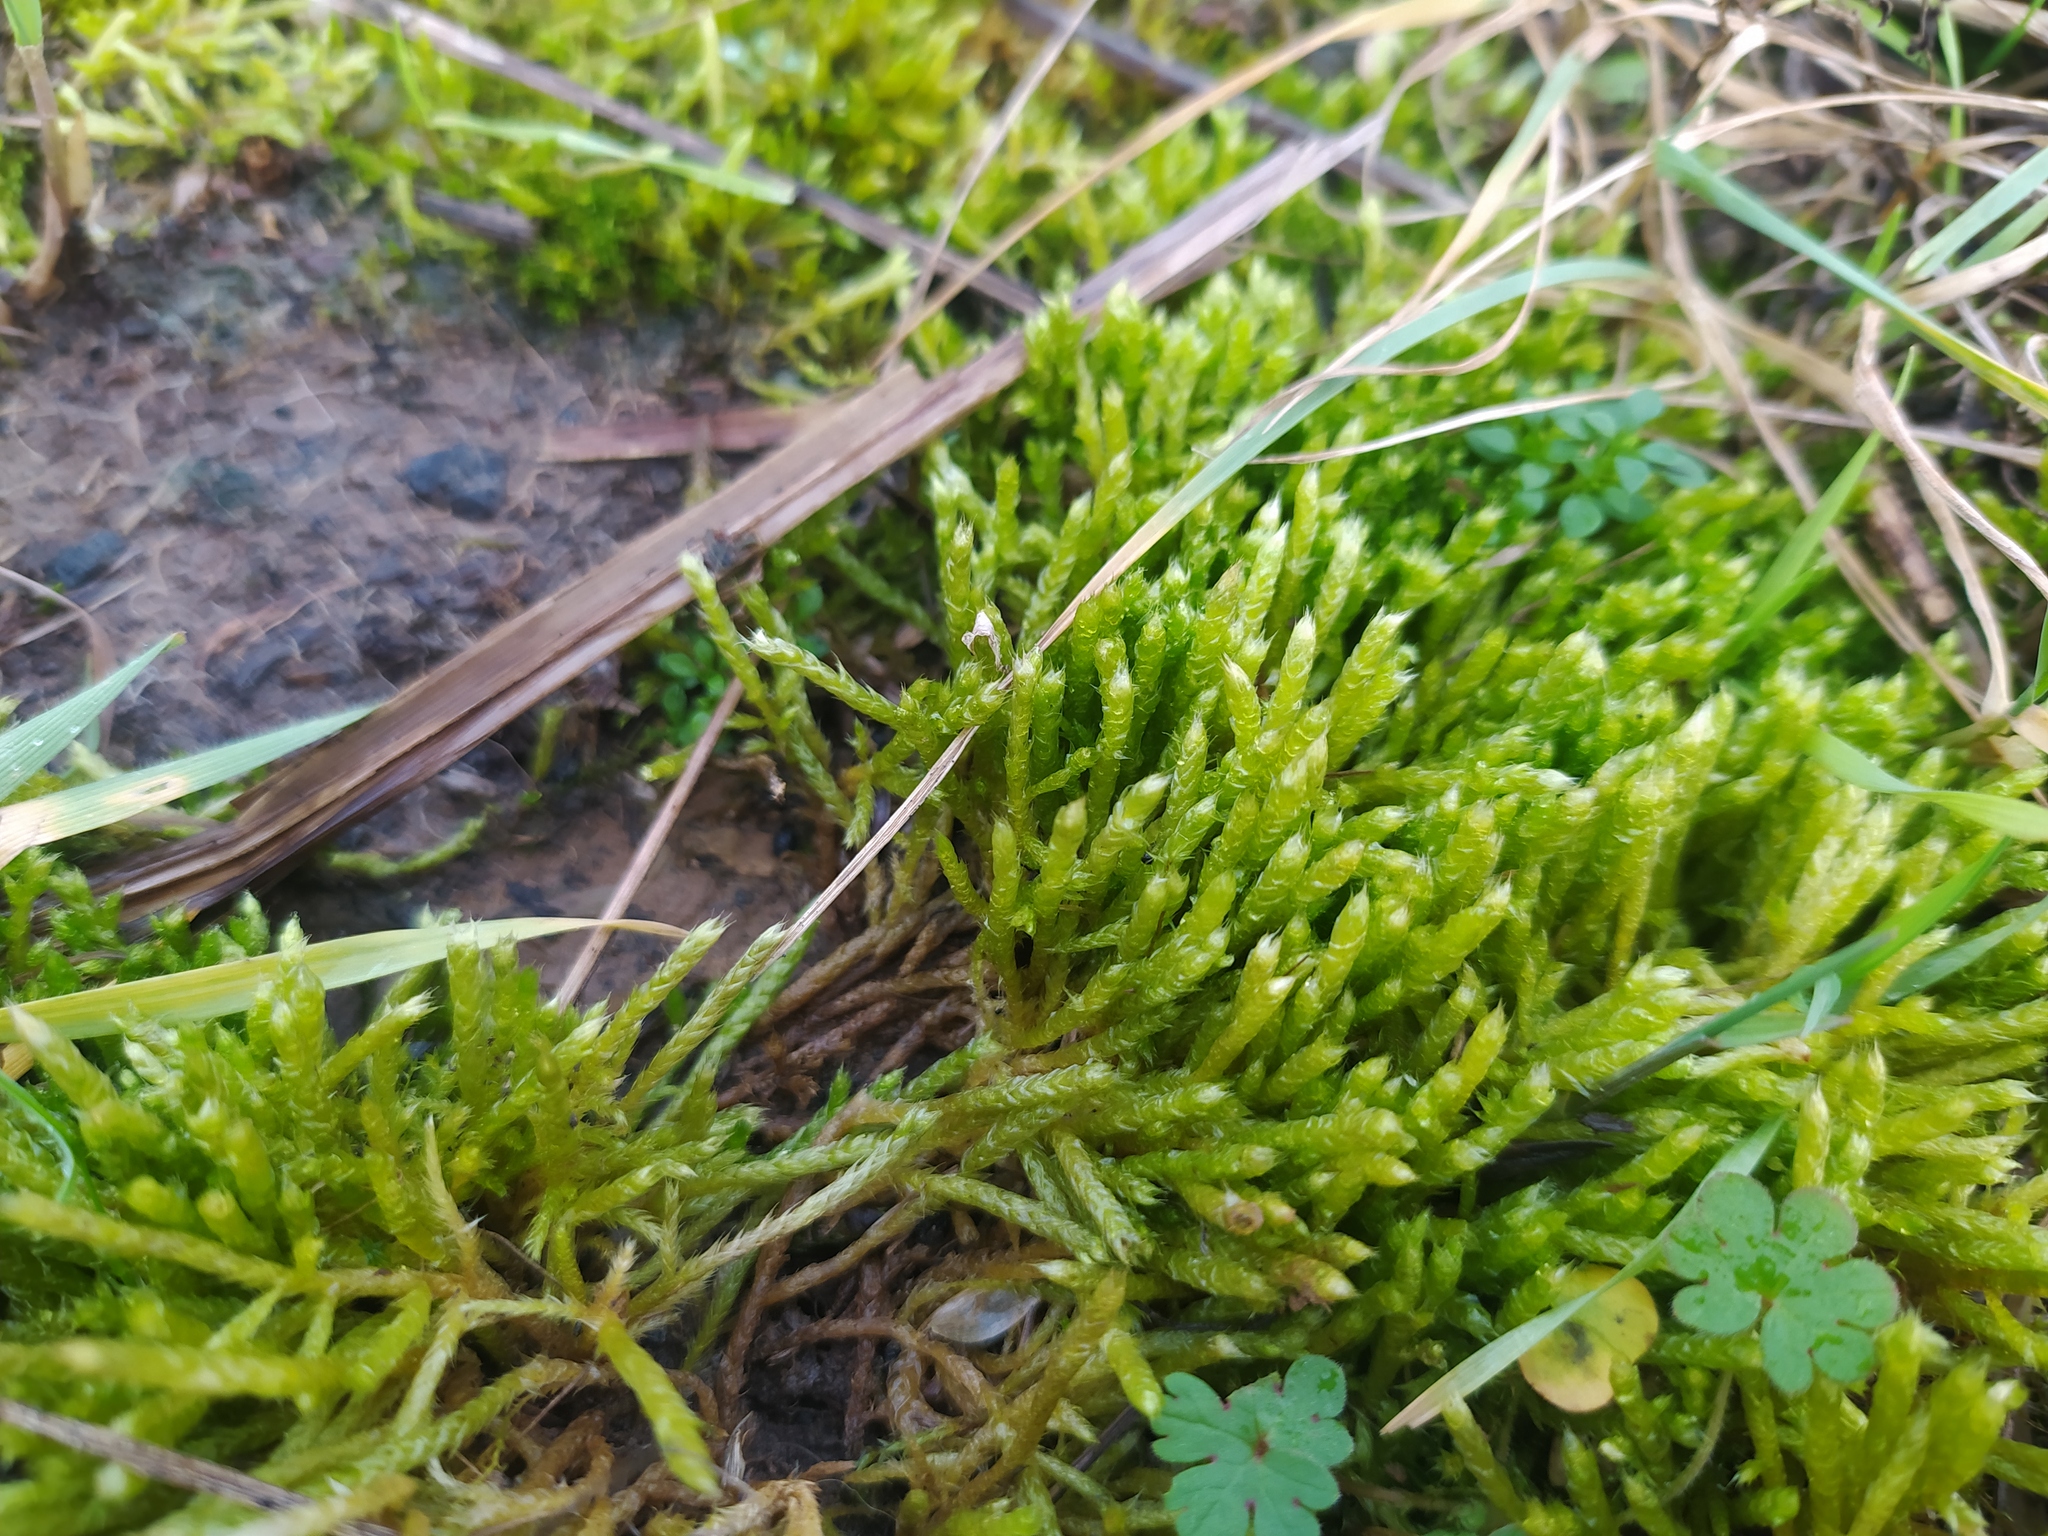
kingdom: Plantae
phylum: Bryophyta
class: Bryopsida
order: Hypnales
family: Brachytheciaceae
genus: Brachythecium
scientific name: Brachythecium albicans
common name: Whitish ragged moss
